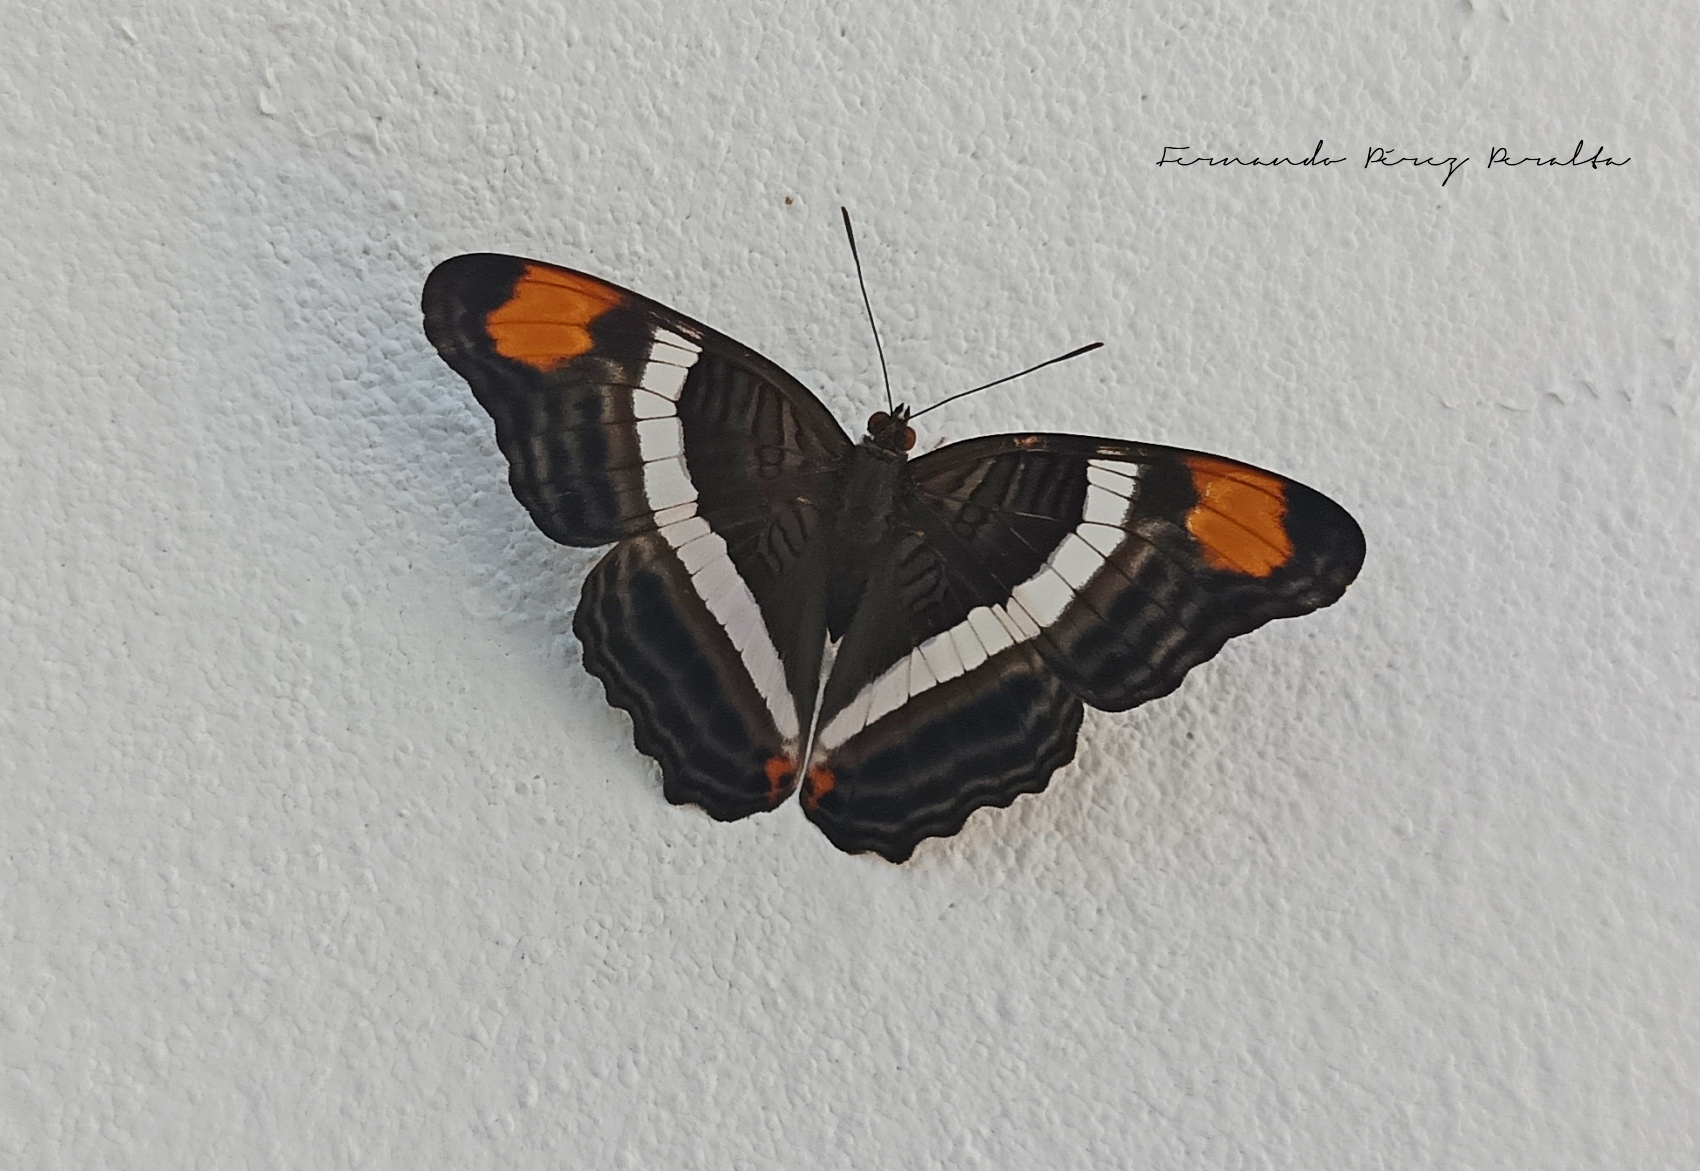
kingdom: Animalia
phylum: Arthropoda
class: Insecta
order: Lepidoptera
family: Nymphalidae
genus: Limenitis
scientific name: Limenitis fessonia
